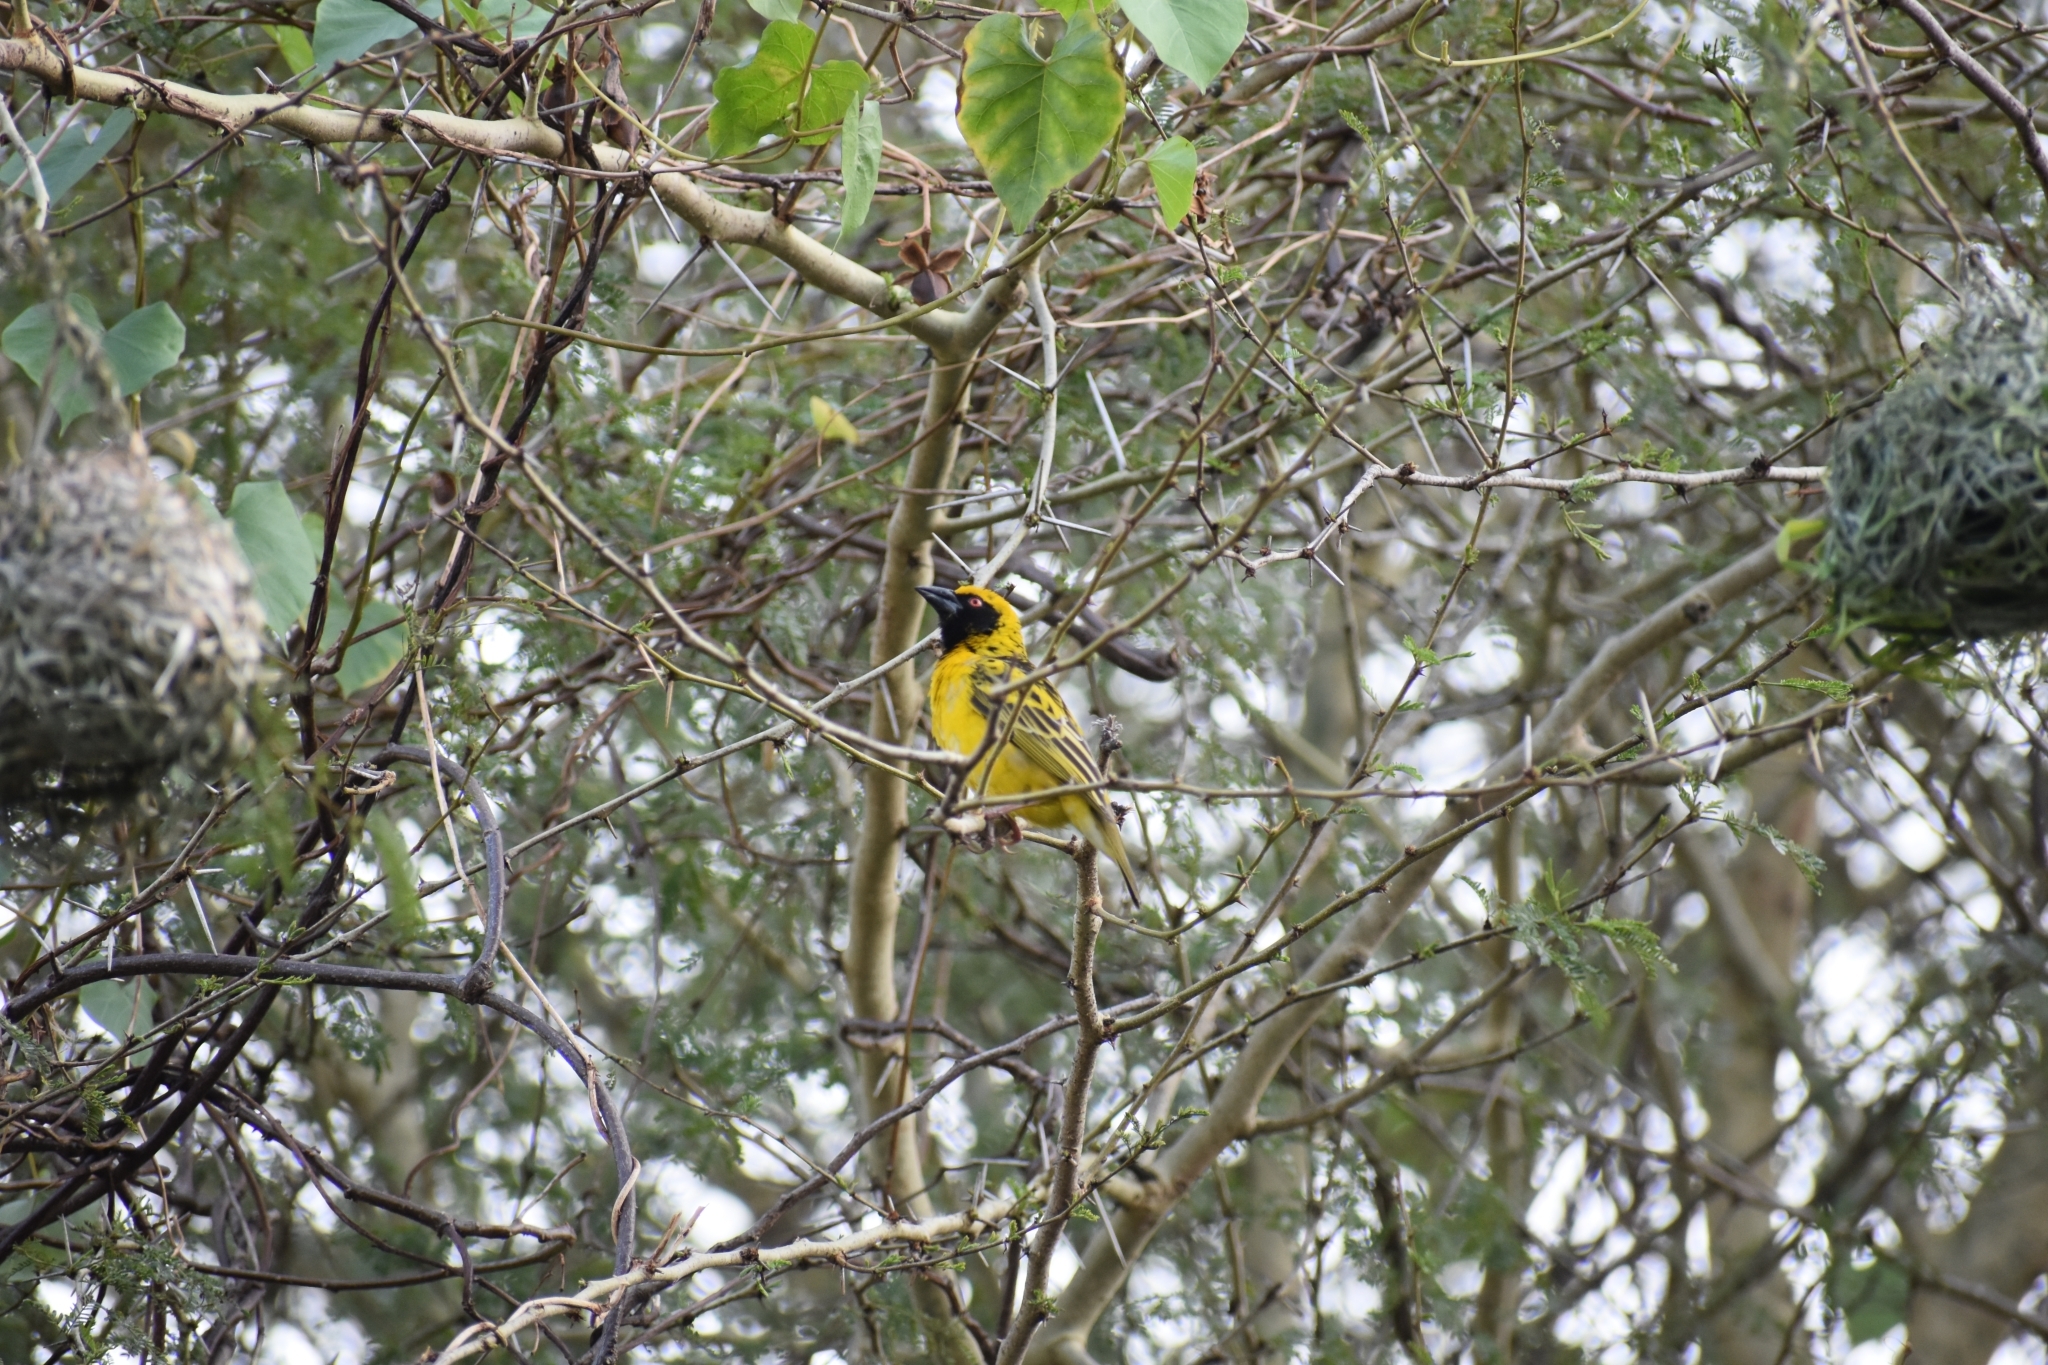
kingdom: Animalia
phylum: Chordata
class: Aves
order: Passeriformes
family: Ploceidae
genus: Ploceus
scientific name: Ploceus cucullatus
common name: Village weaver
